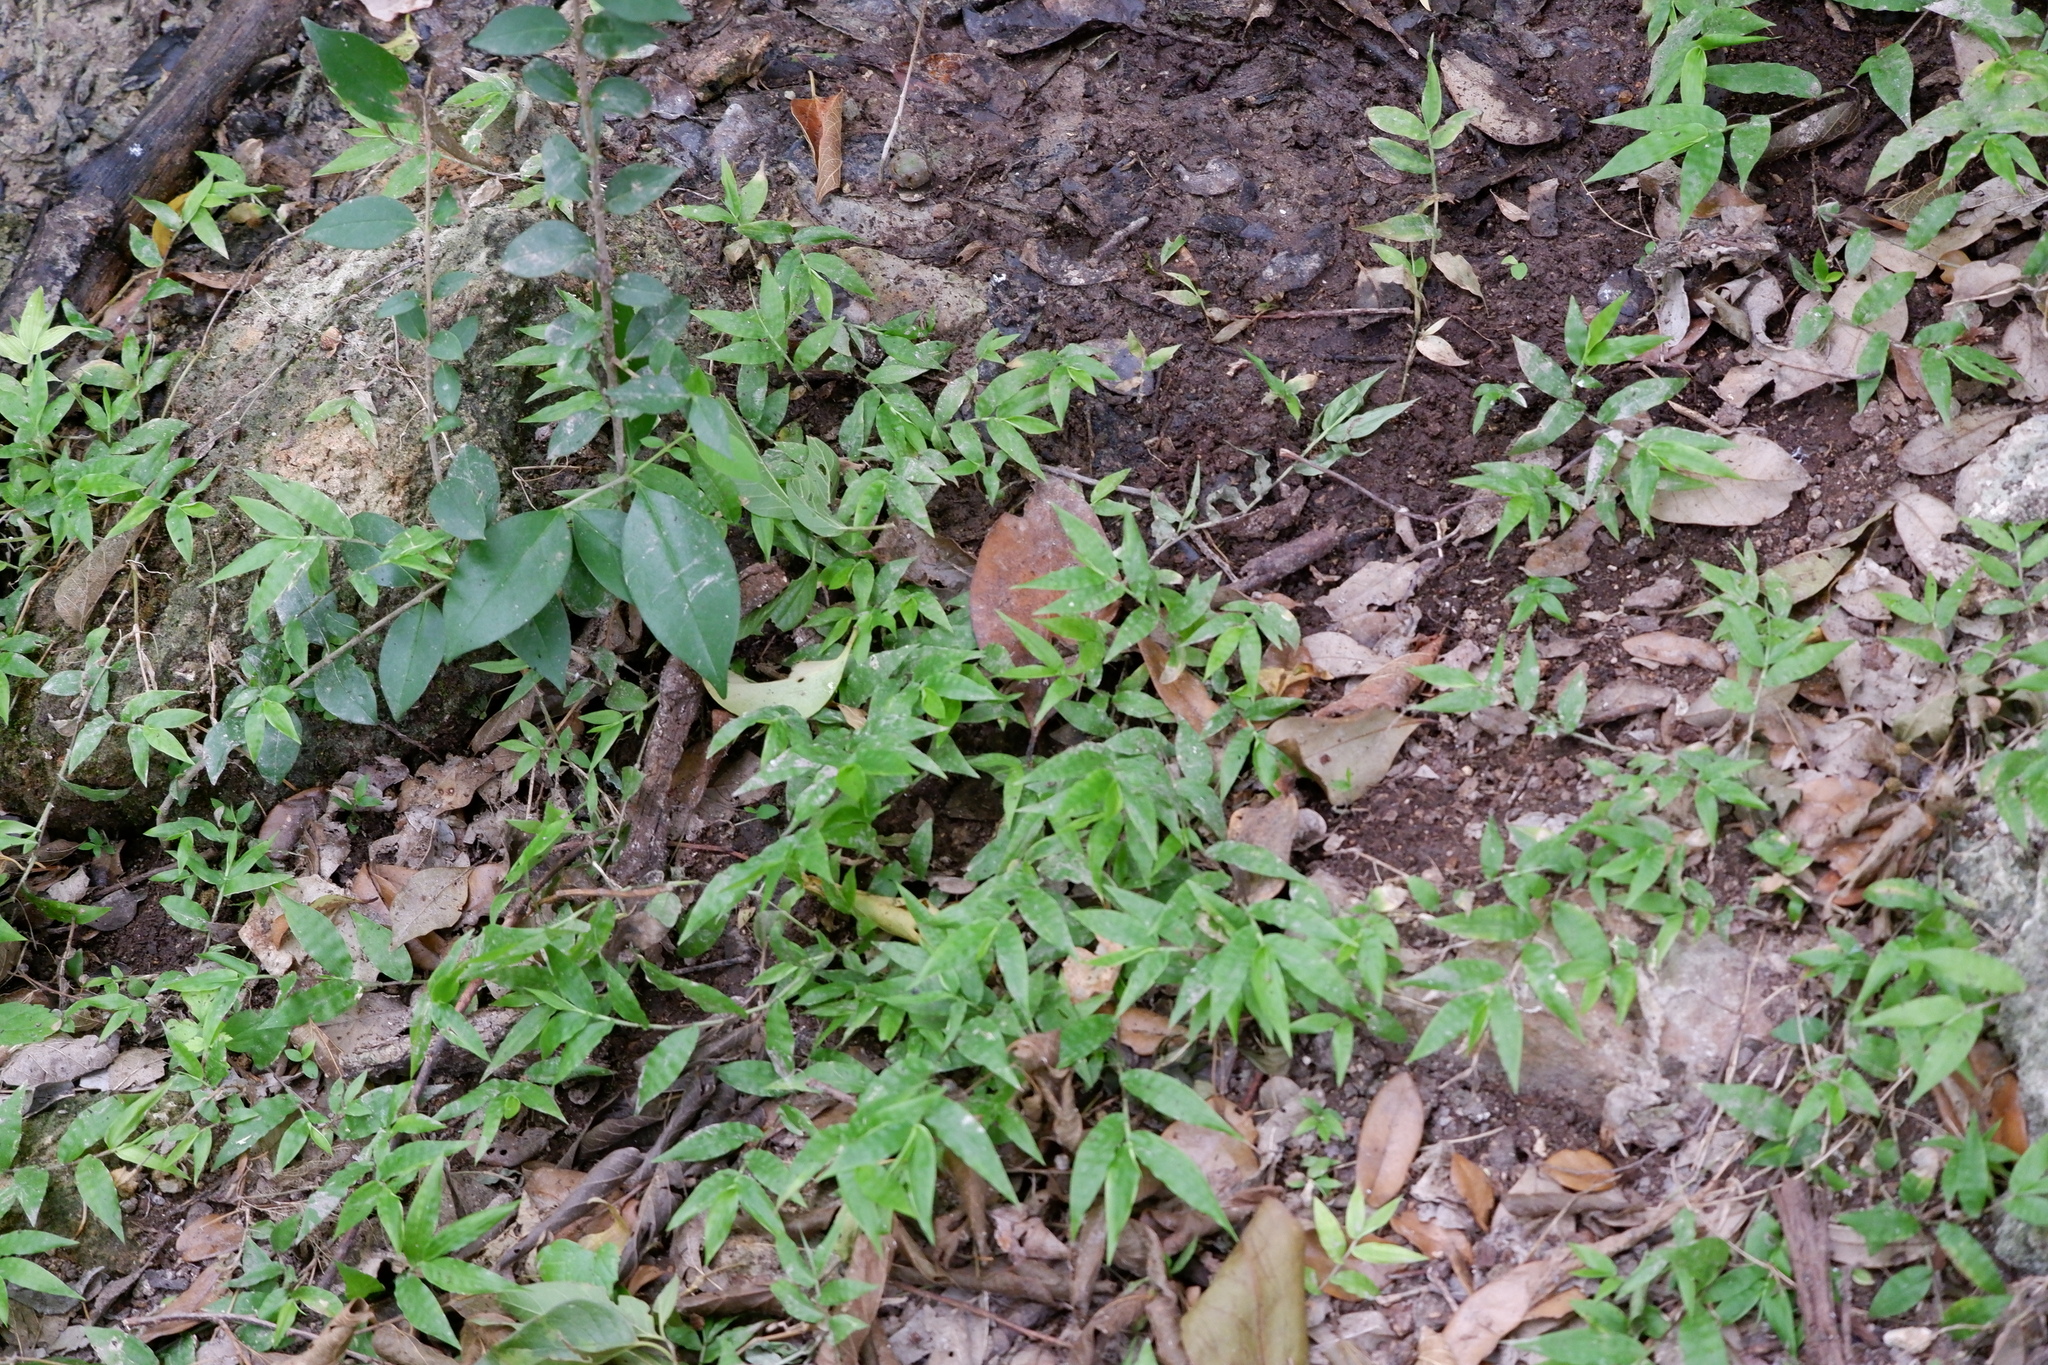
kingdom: Plantae
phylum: Tracheophyta
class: Liliopsida
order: Poales
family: Poaceae
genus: Oplismenus
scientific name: Oplismenus hirtellus
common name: Basketgrass
